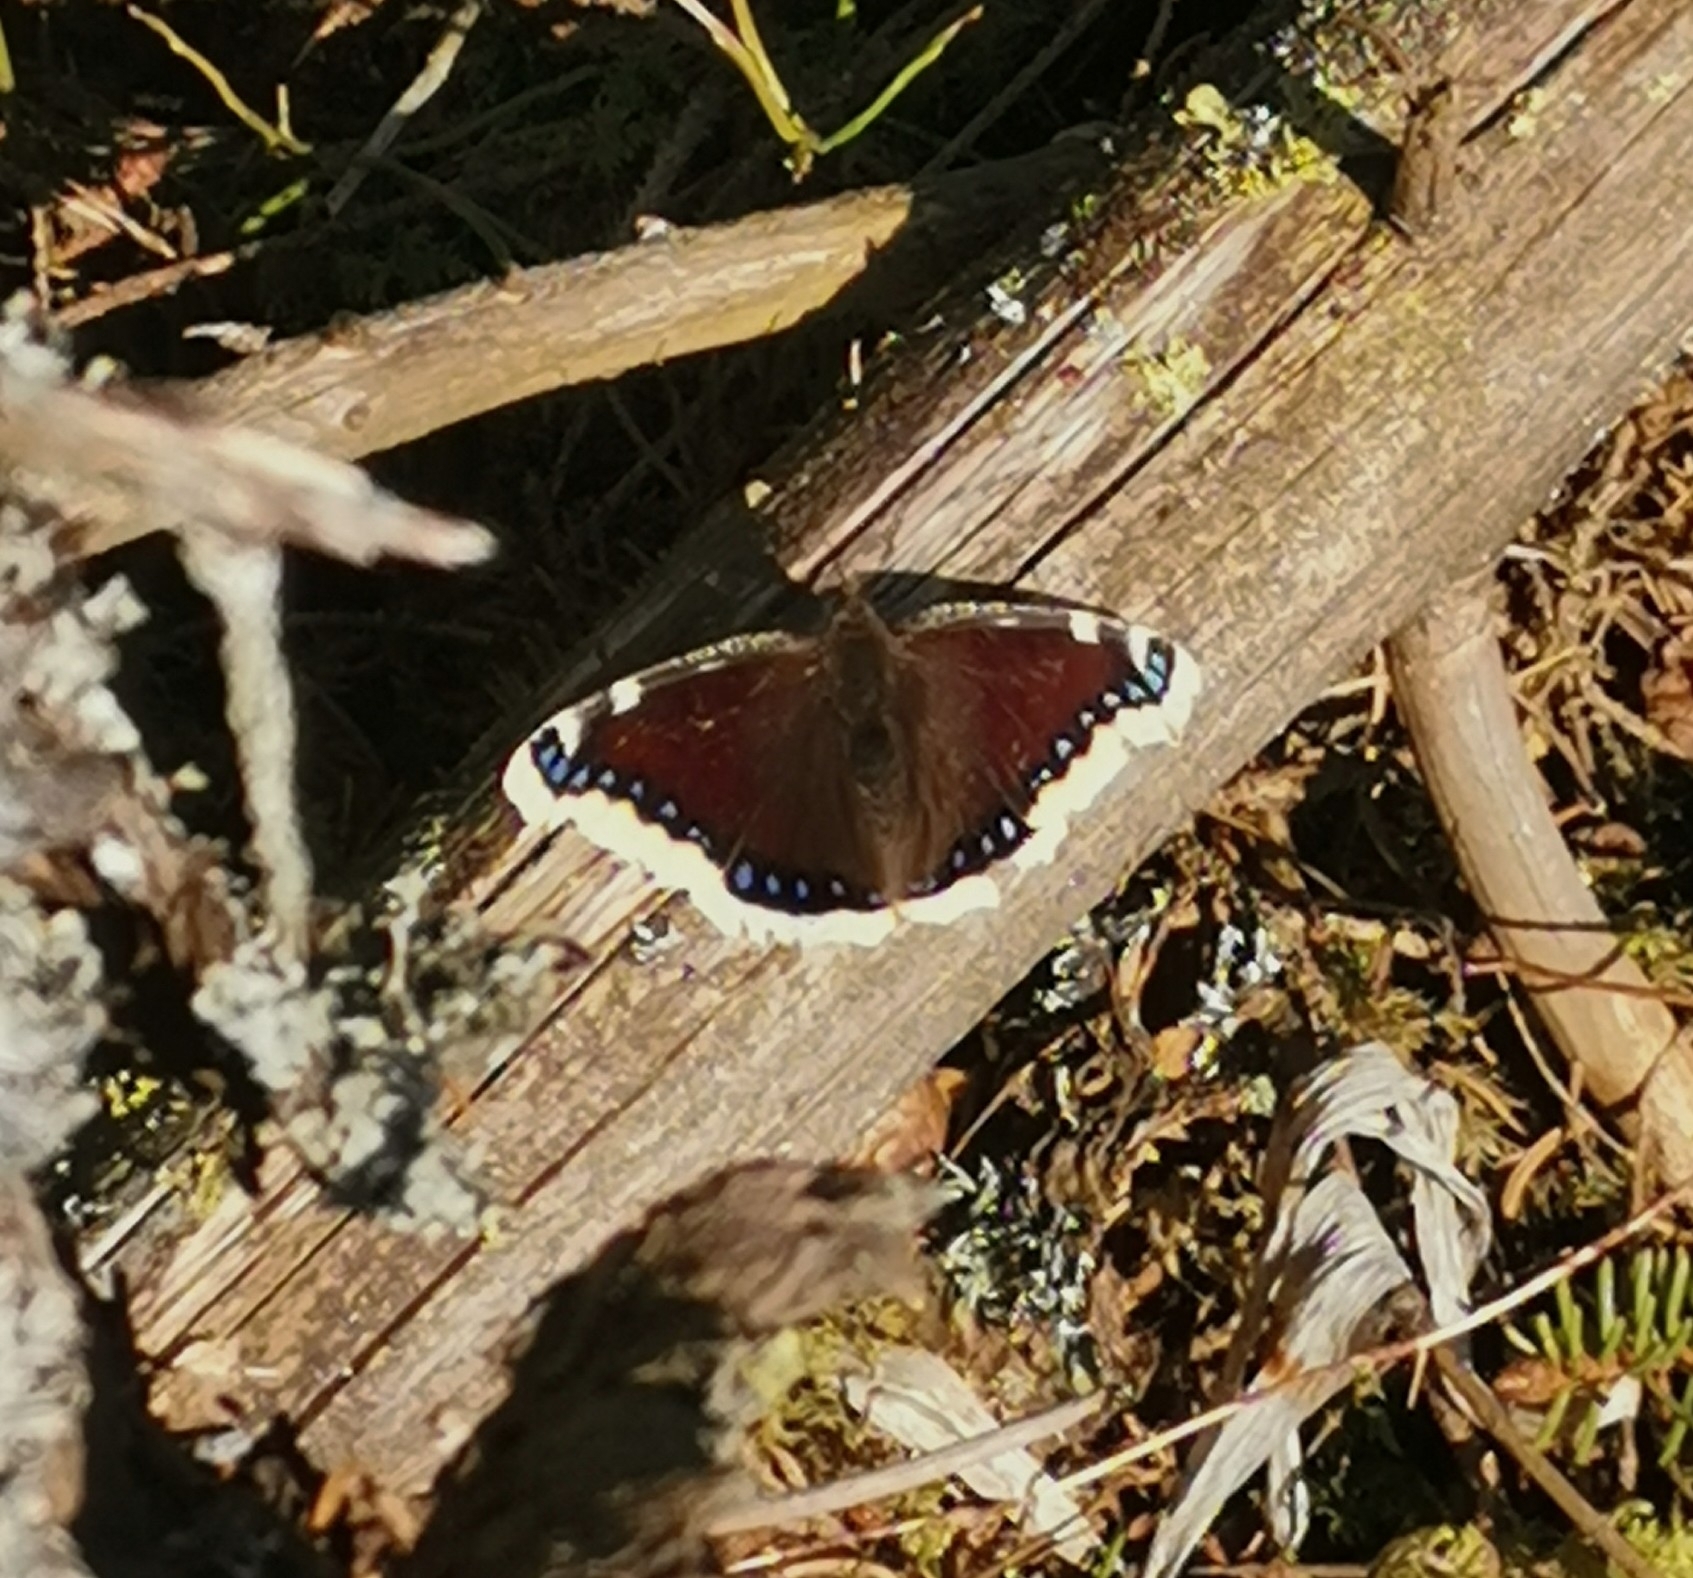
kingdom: Animalia
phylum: Arthropoda
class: Insecta
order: Lepidoptera
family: Nymphalidae
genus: Nymphalis
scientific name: Nymphalis antiopa
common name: Camberwell beauty
